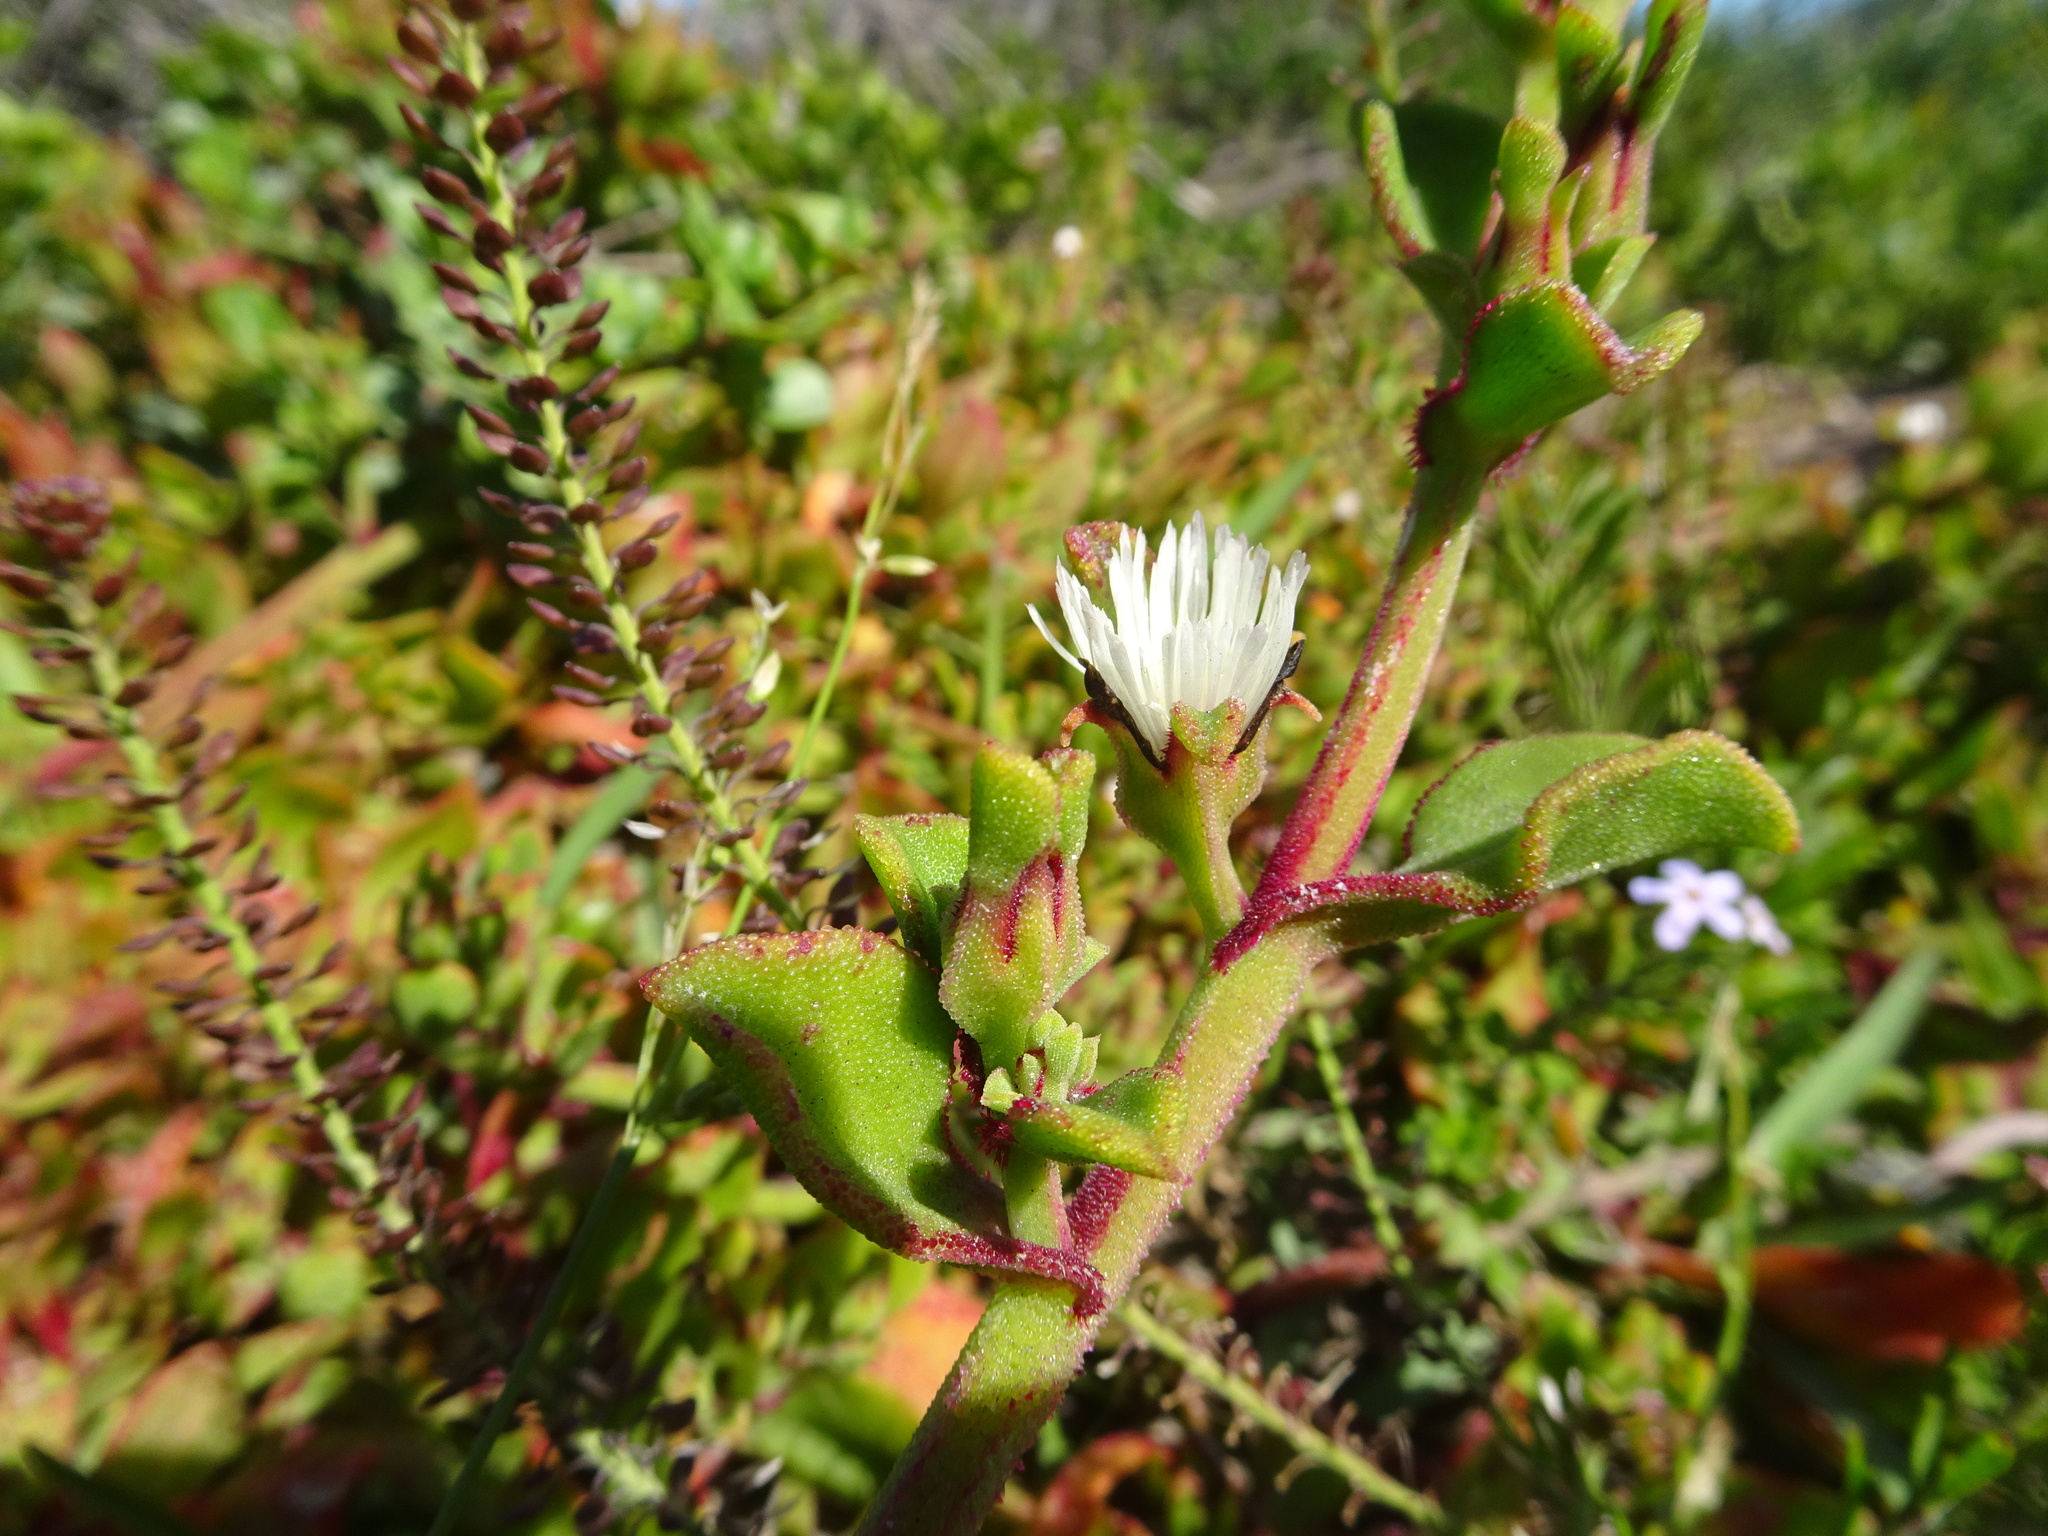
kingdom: Plantae
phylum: Tracheophyta
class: Magnoliopsida
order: Caryophyllales
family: Aizoaceae
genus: Mesembryanthemum
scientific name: Mesembryanthemum aitonis
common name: Angled iceplant
